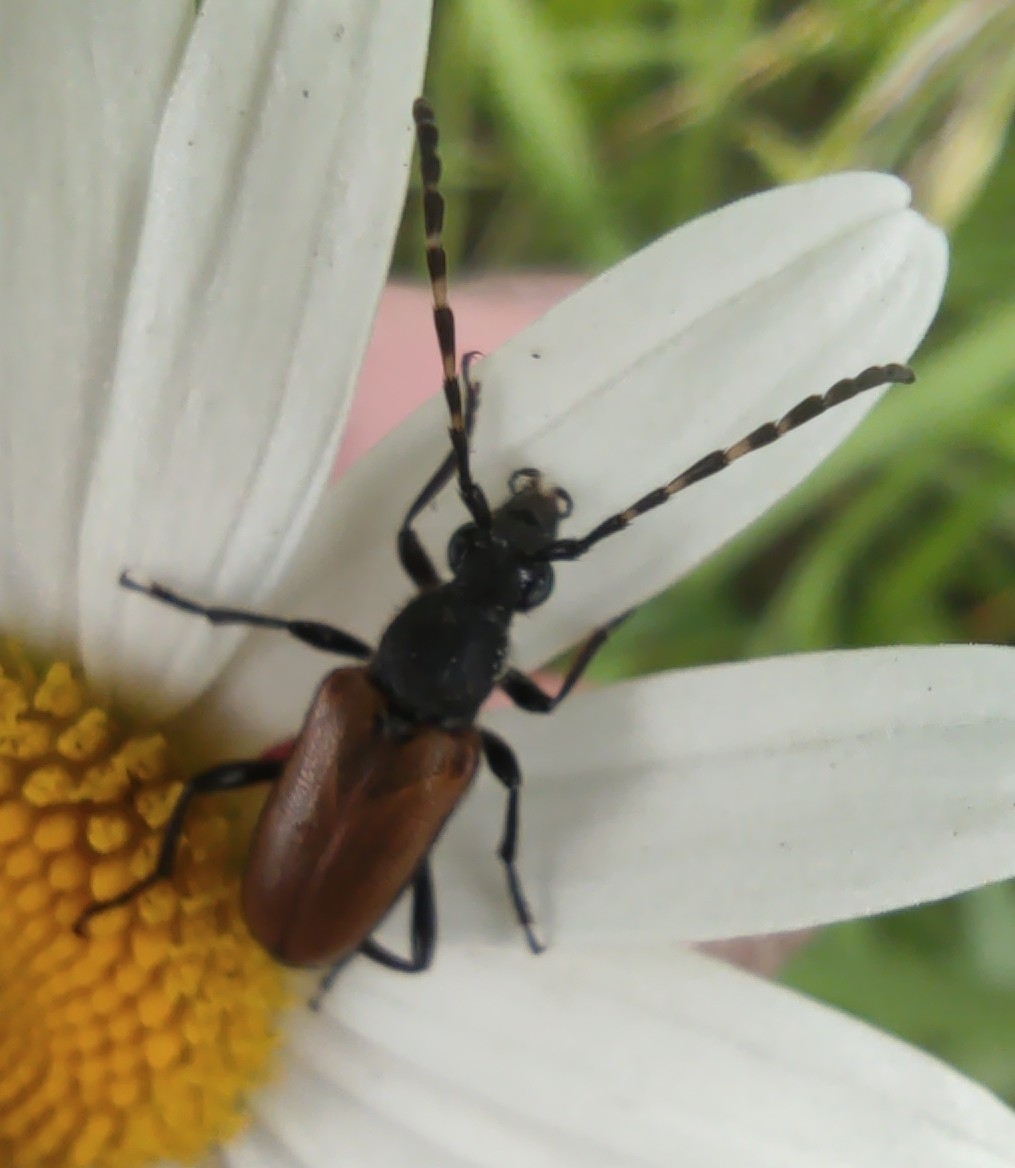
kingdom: Animalia
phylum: Arthropoda
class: Insecta
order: Coleoptera
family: Cerambycidae
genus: Paracorymbia
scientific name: Paracorymbia maculicornis
